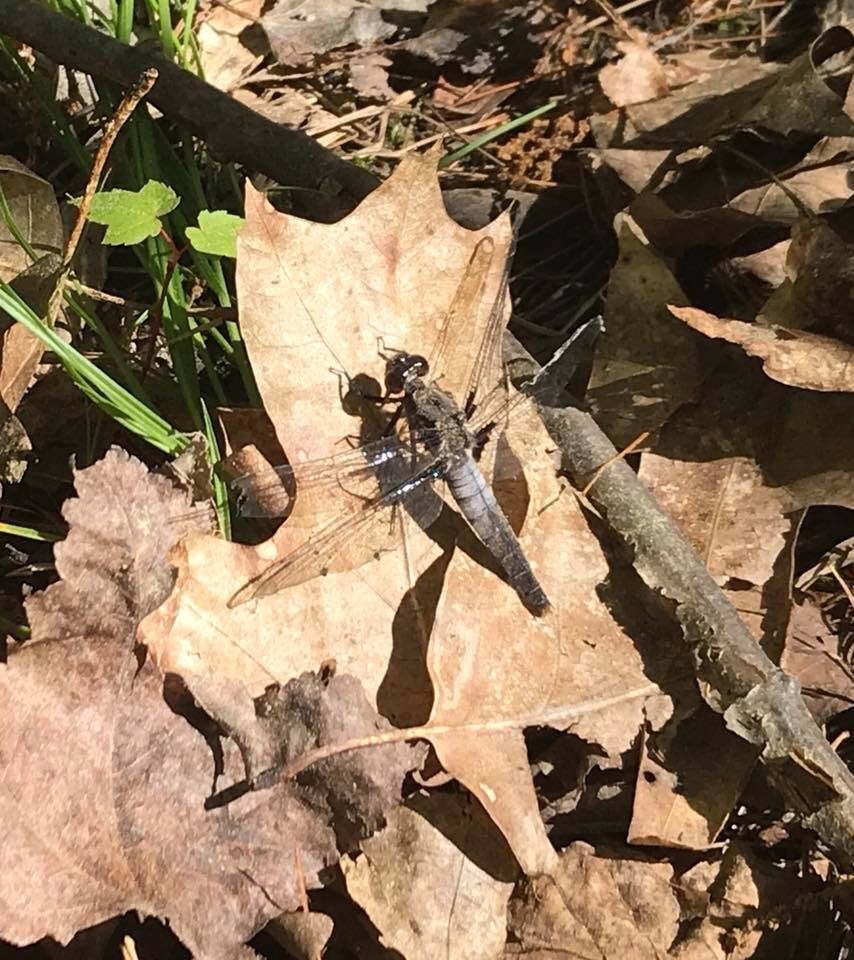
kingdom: Animalia
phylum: Arthropoda
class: Insecta
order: Odonata
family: Libellulidae
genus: Ladona
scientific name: Ladona julia
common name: Chalk-fronted corporal
